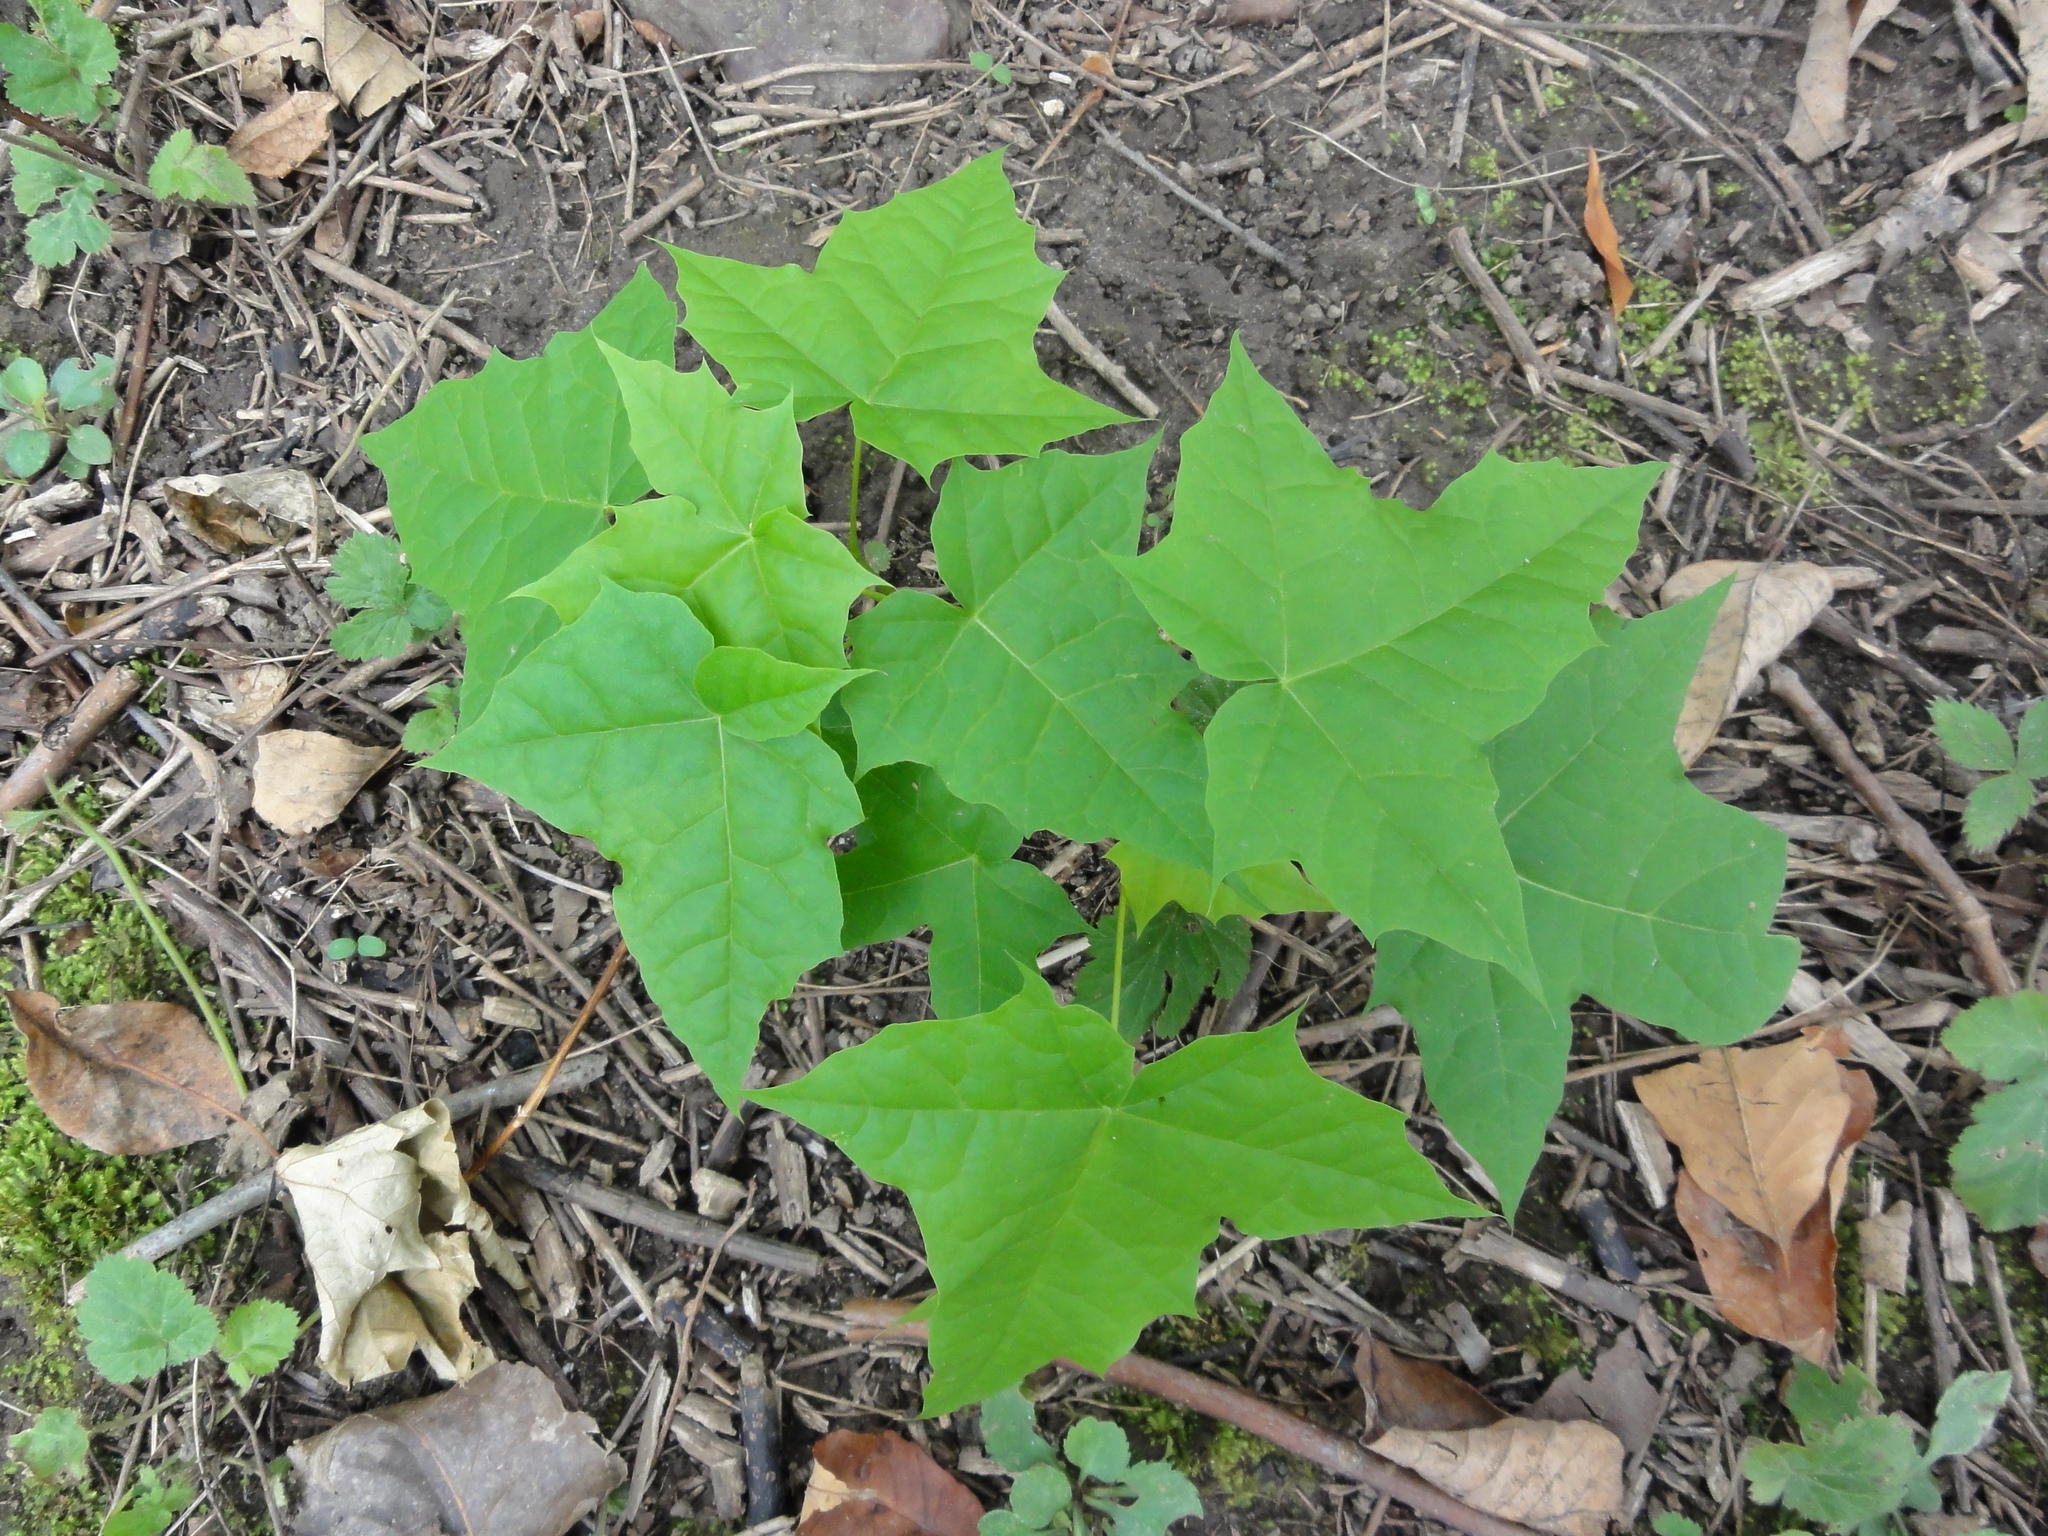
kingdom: Plantae
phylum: Tracheophyta
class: Magnoliopsida
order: Sapindales
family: Sapindaceae
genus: Acer
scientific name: Acer platanoides
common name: Norway maple
